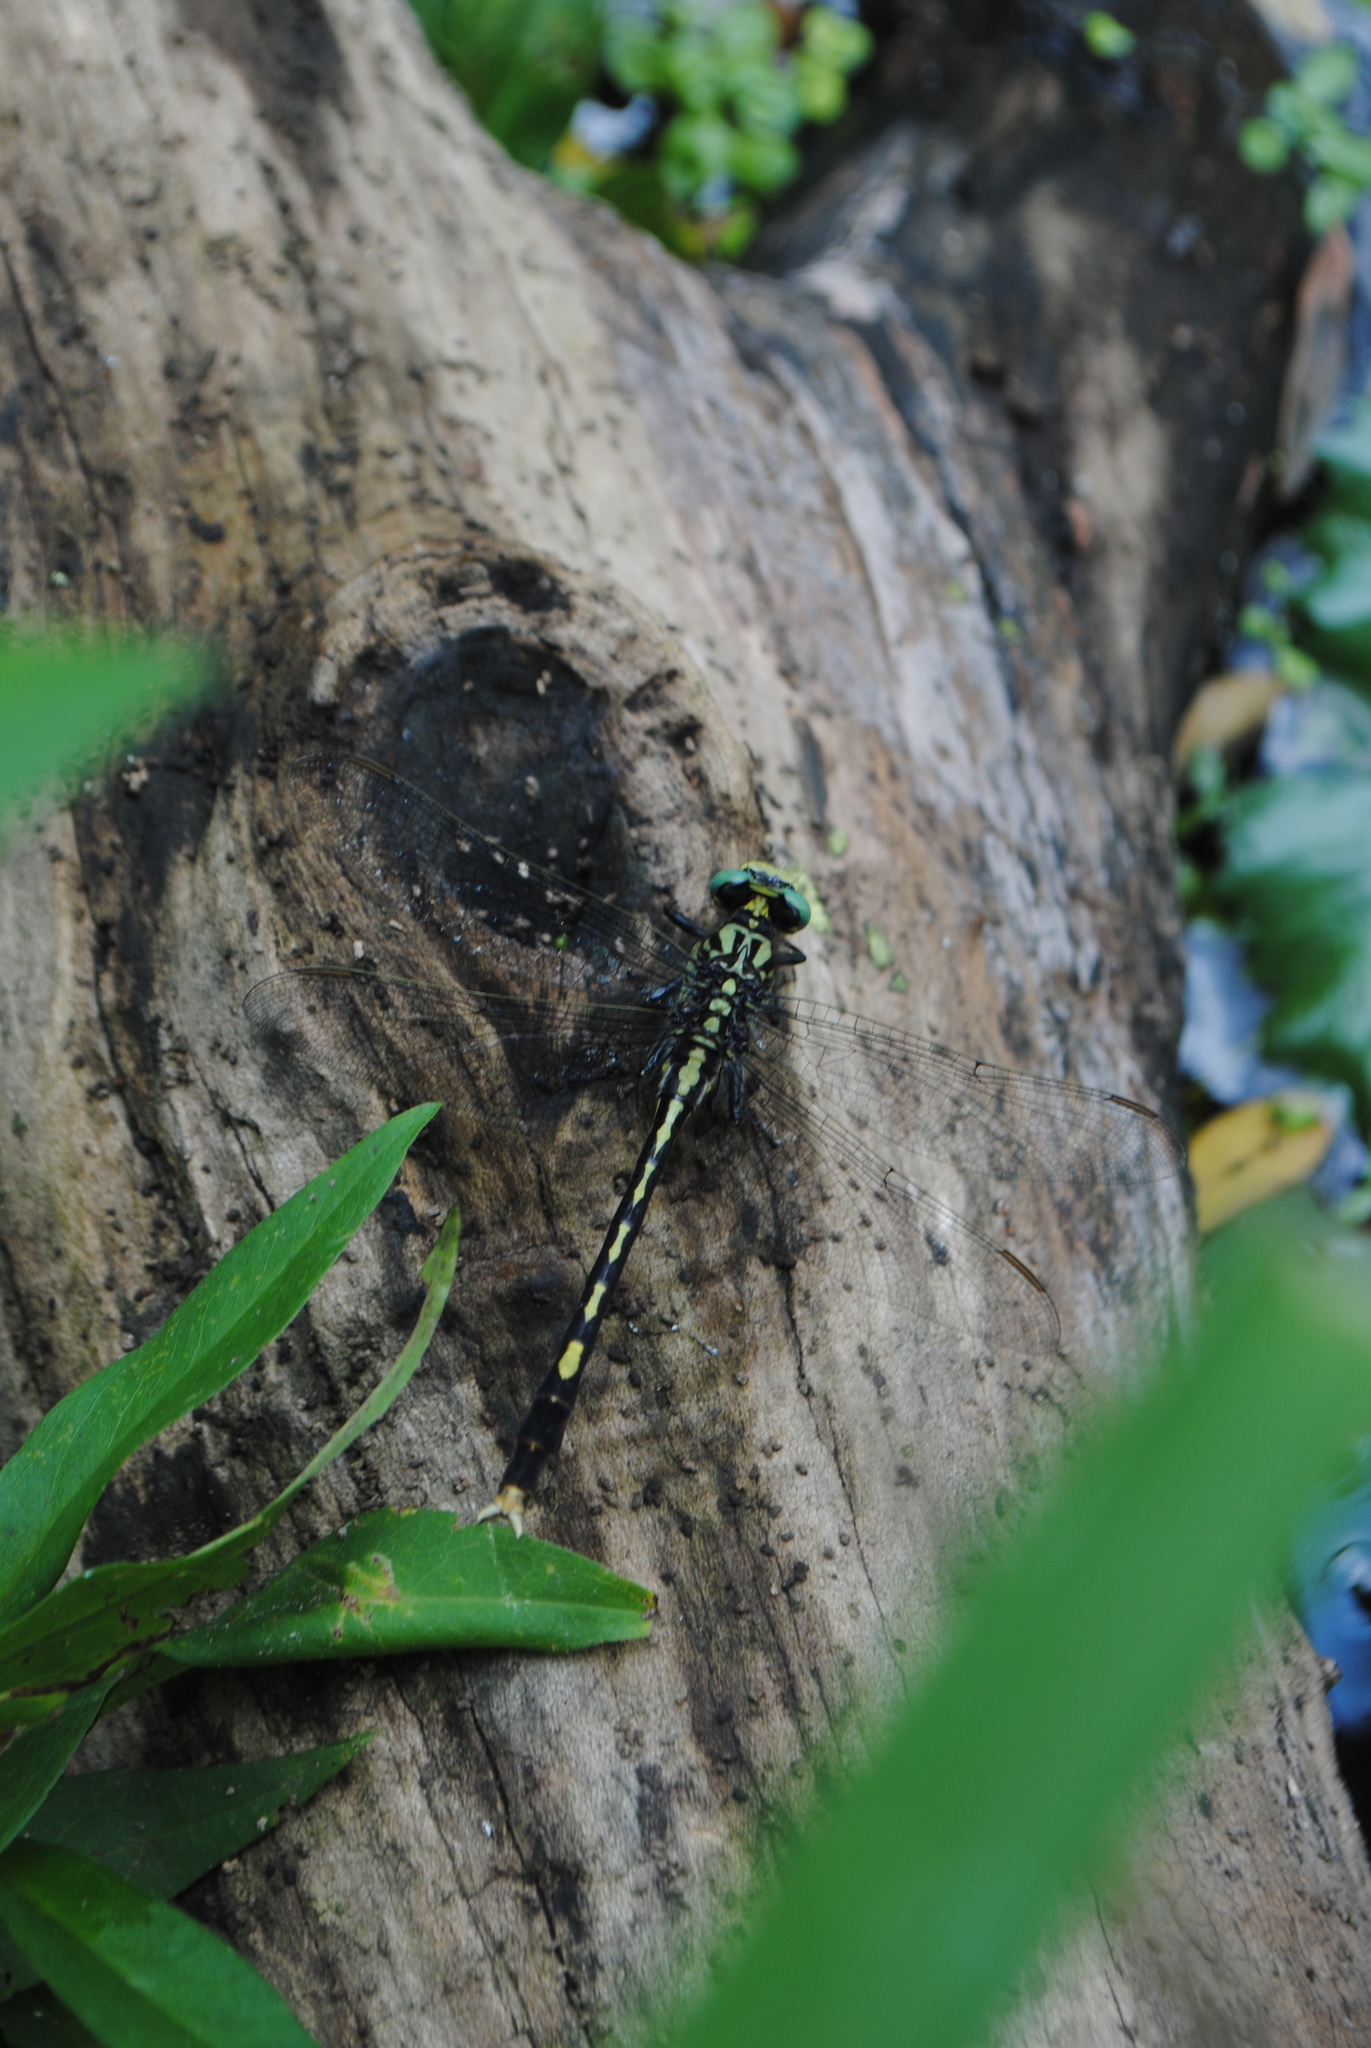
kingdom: Animalia
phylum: Arthropoda
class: Insecta
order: Odonata
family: Gomphidae
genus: Arigomphus
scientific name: Arigomphus villosipes
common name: Unicorn clubtail
